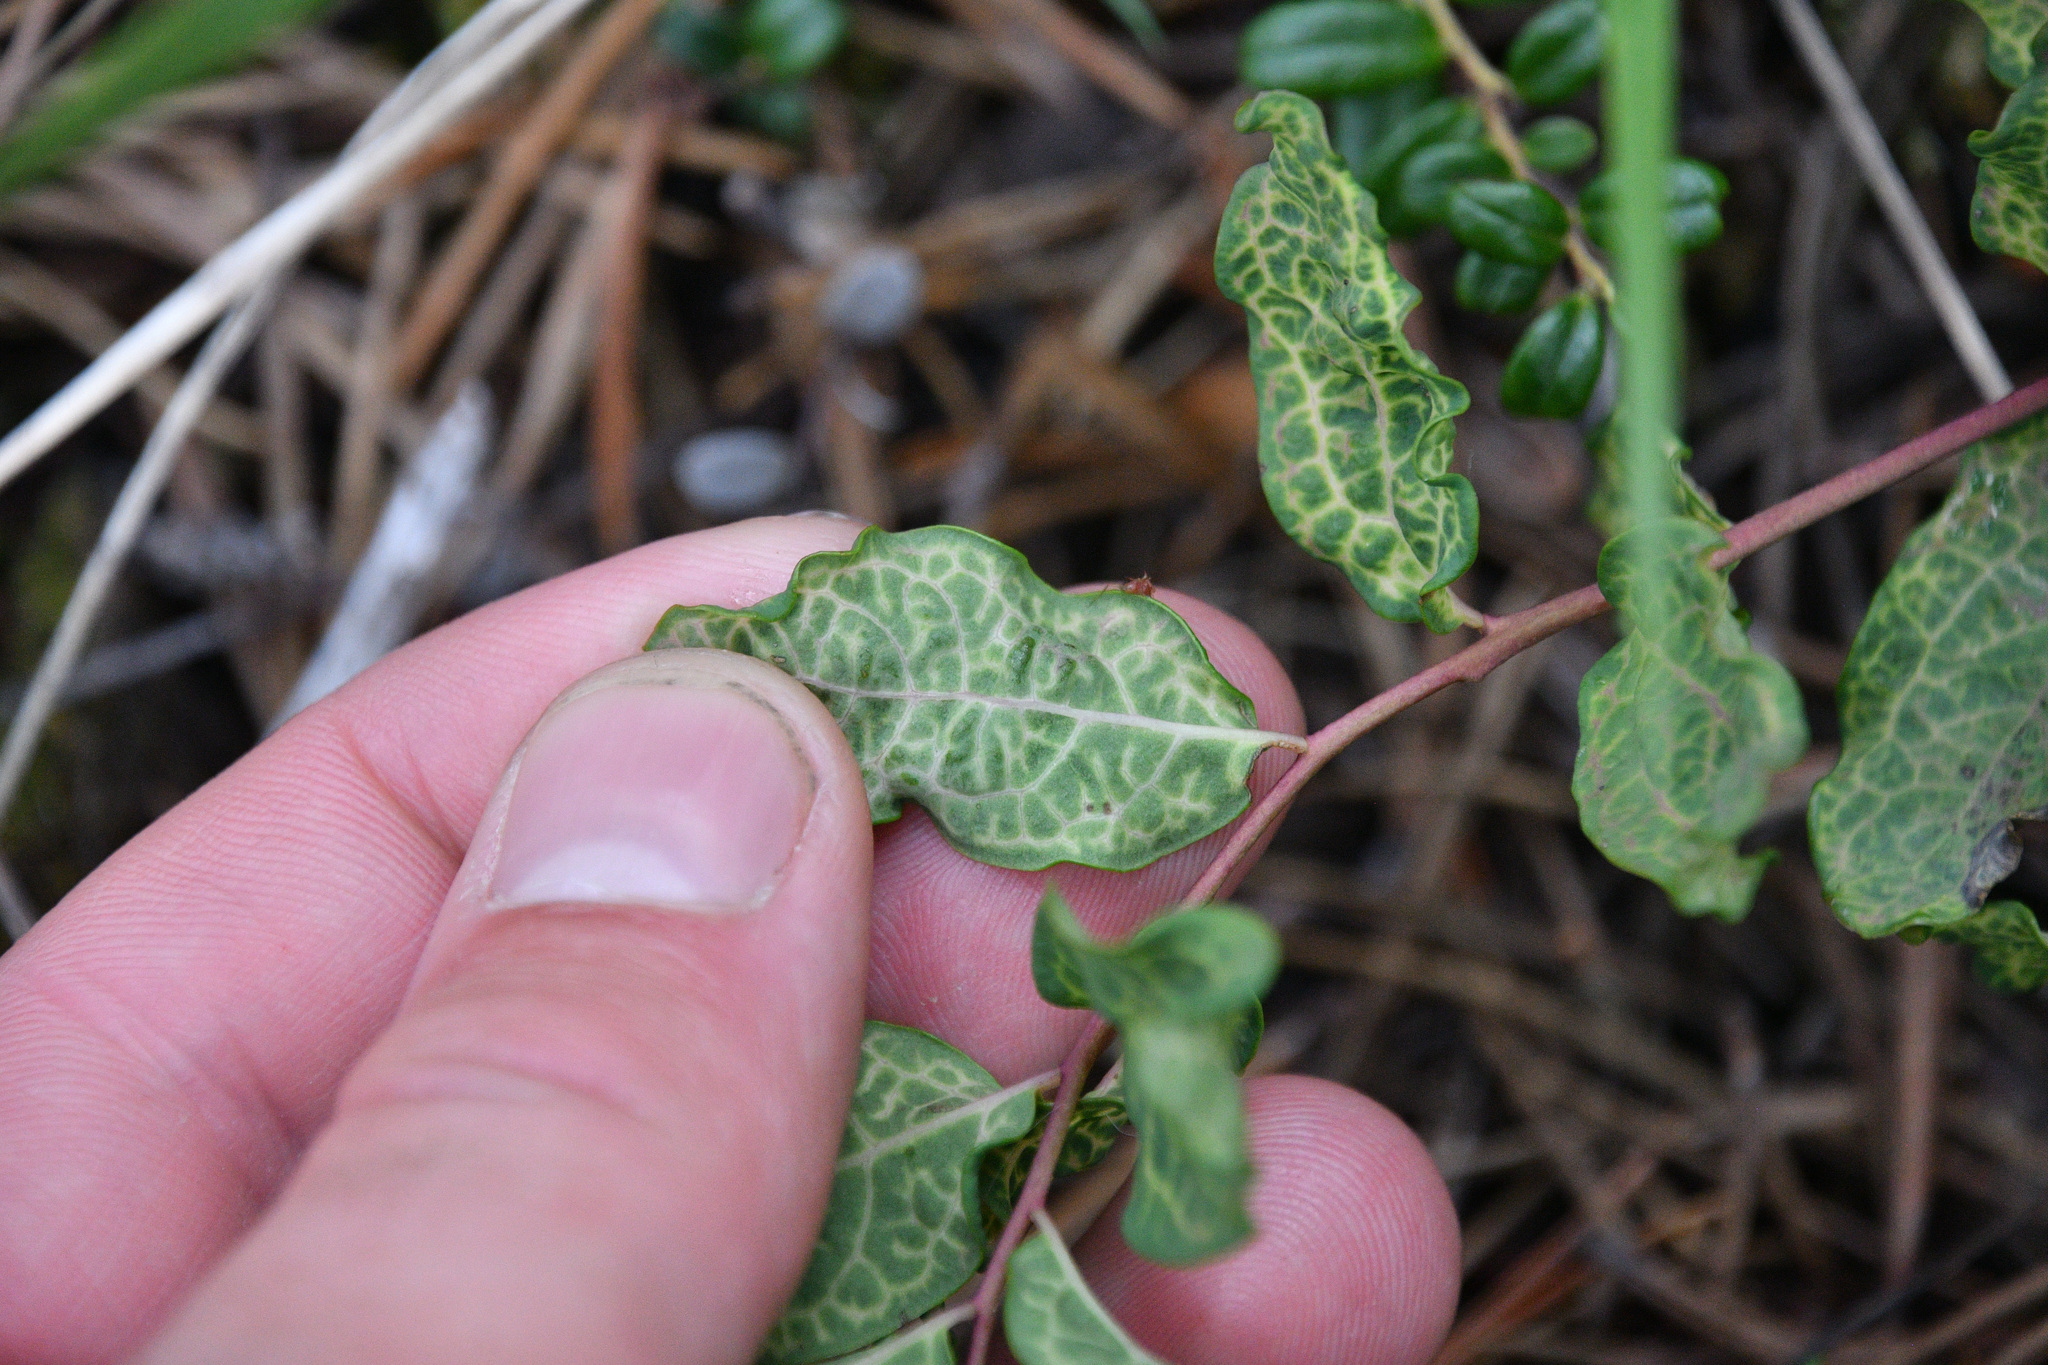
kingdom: Plantae
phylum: Tracheophyta
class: Magnoliopsida
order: Santalales
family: Comandraceae
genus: Geocaulon
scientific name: Geocaulon lividum
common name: Earthberry
